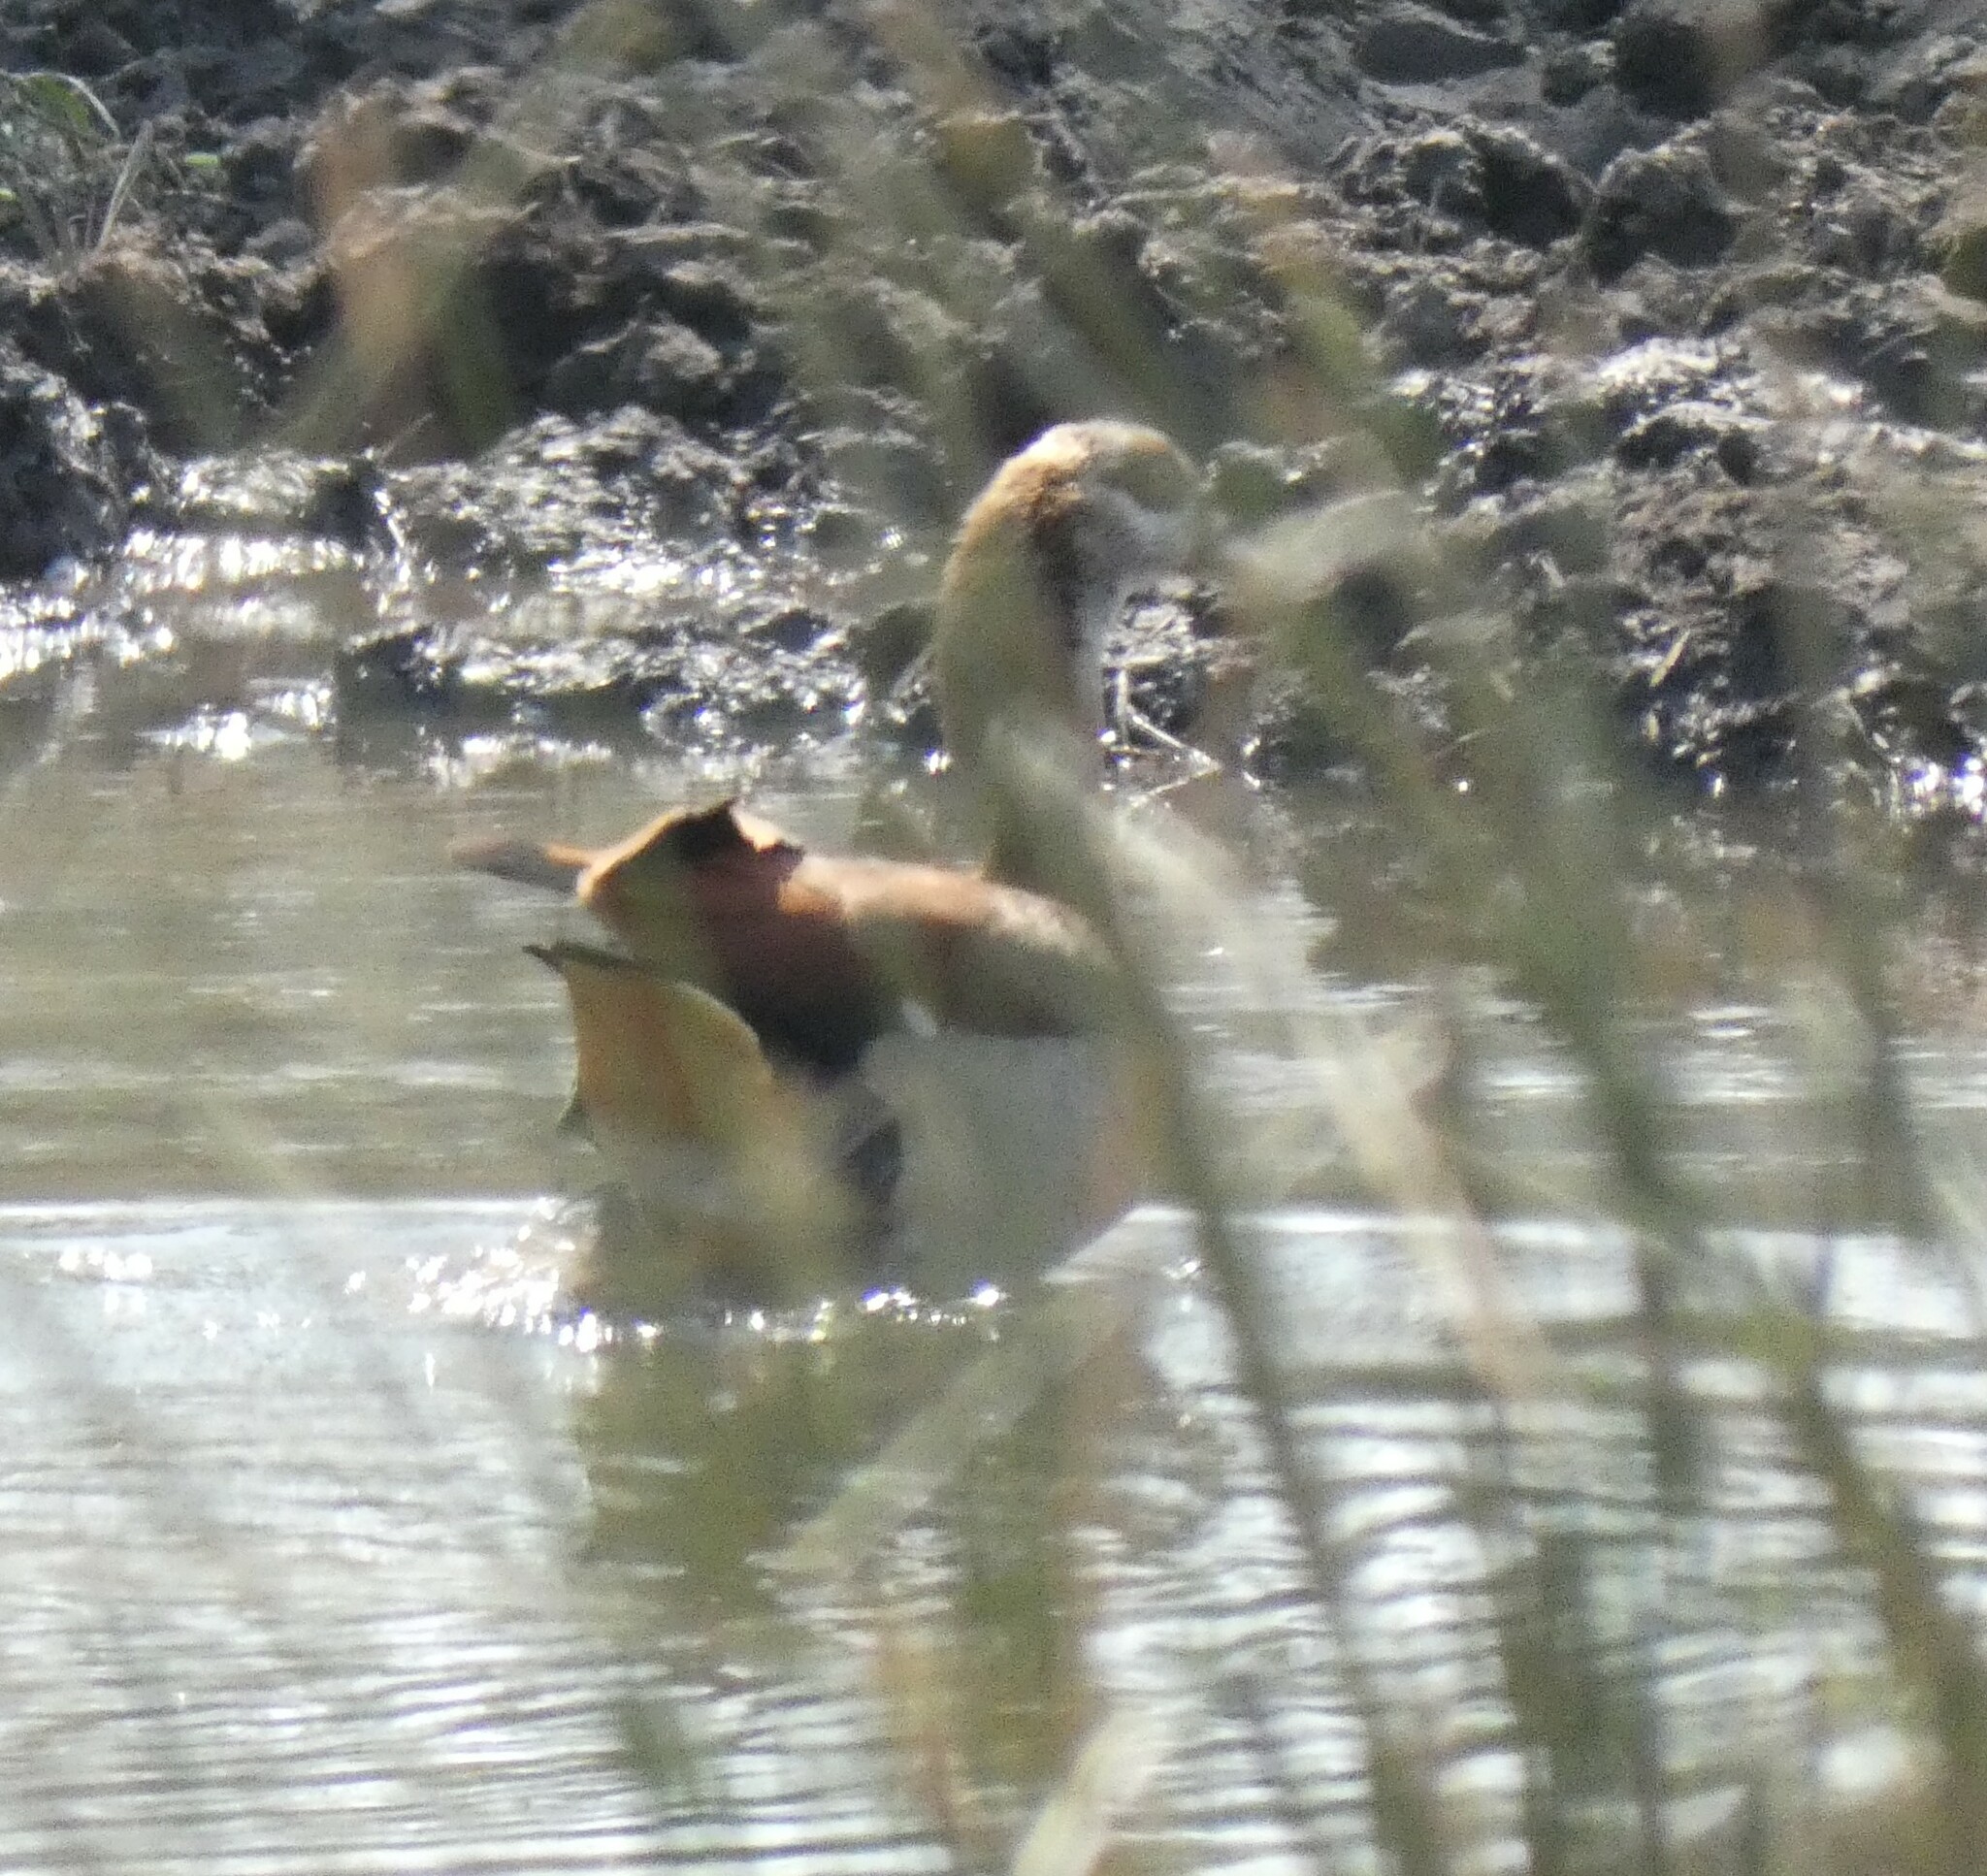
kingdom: Animalia
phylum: Chordata
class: Aves
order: Anseriformes
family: Anatidae
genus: Alopochen
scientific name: Alopochen aegyptiaca
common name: Egyptian goose
